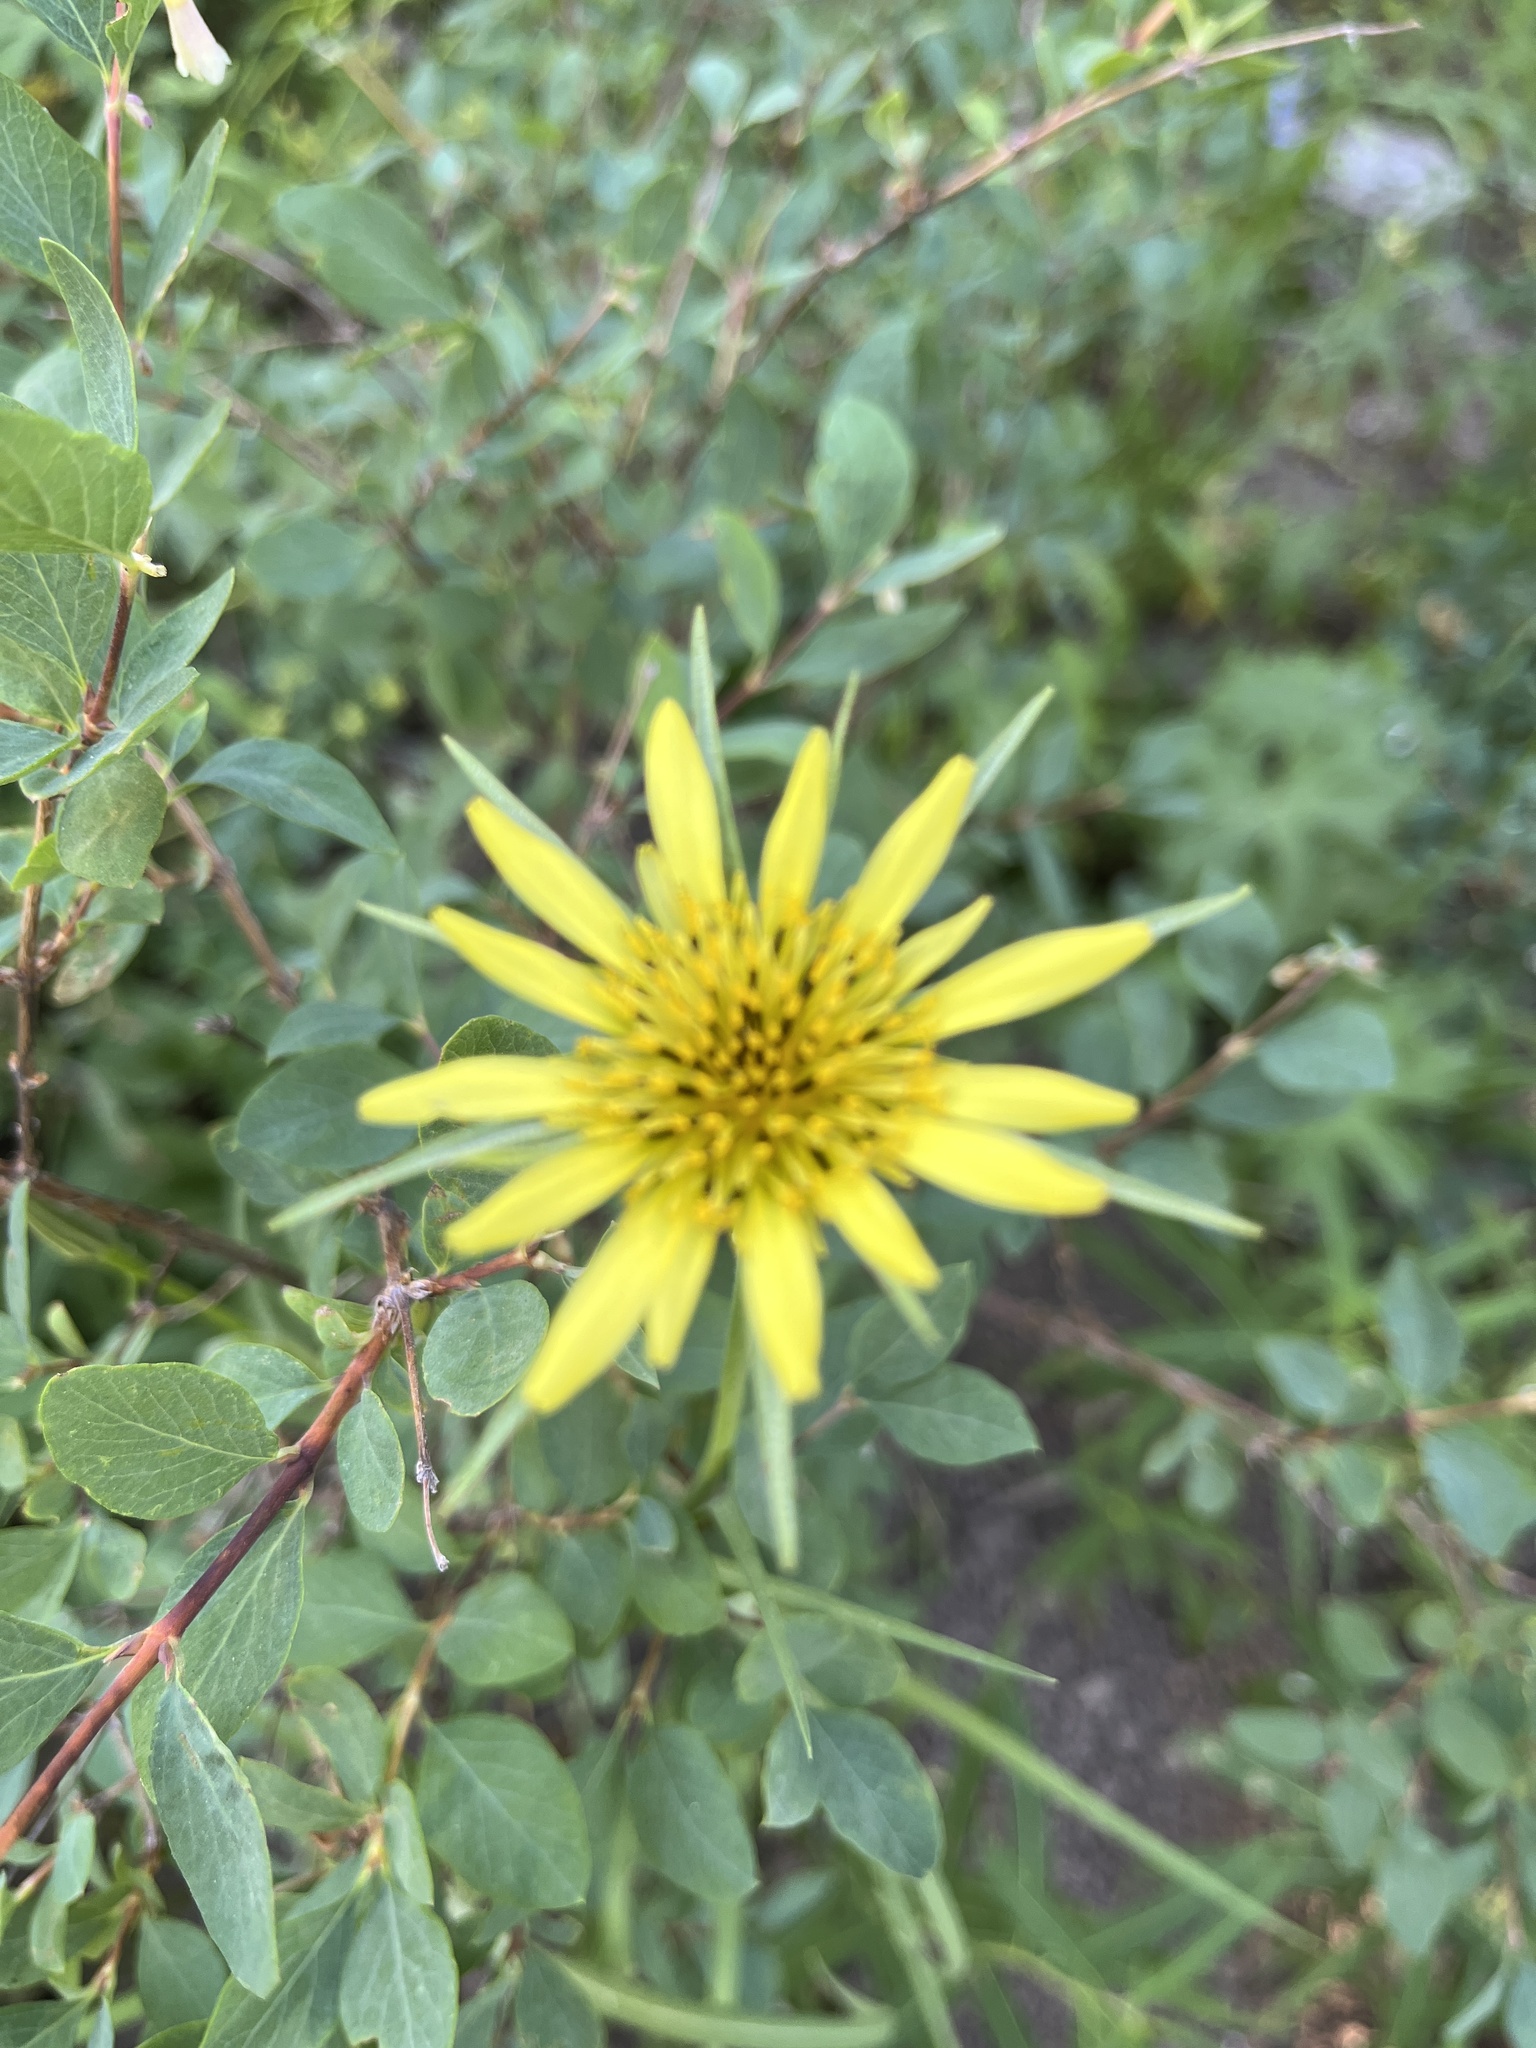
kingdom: Plantae
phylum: Tracheophyta
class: Magnoliopsida
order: Asterales
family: Asteraceae
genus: Tragopogon
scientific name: Tragopogon dubius
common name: Yellow salsify
